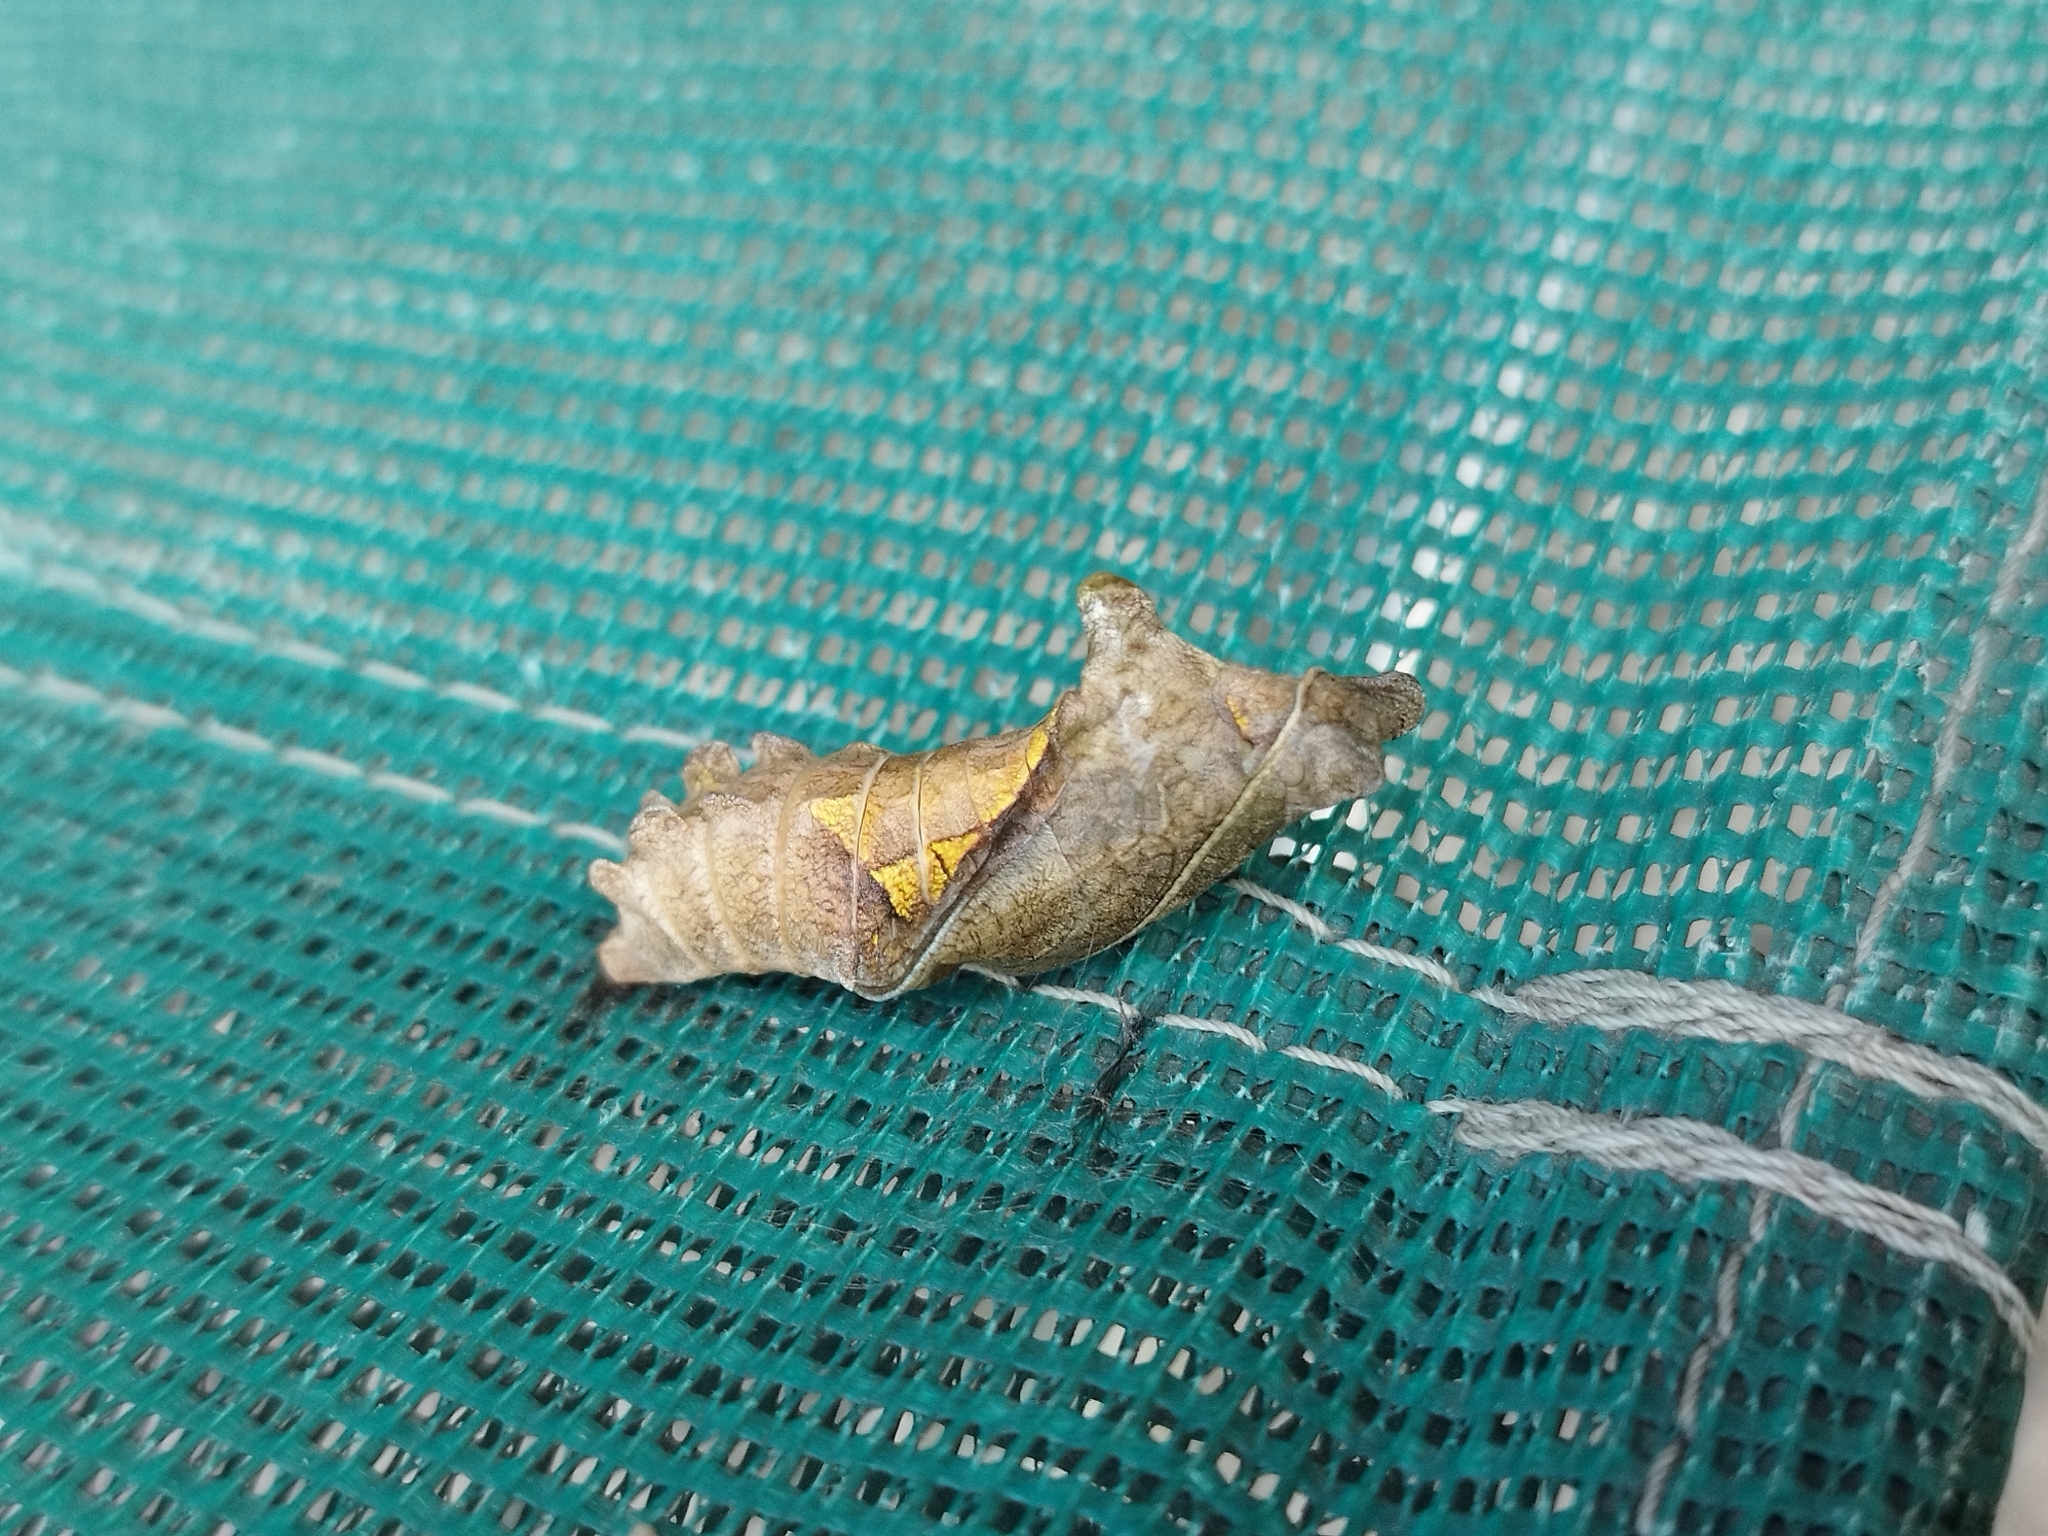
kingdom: Animalia
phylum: Arthropoda
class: Insecta
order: Lepidoptera
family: Papilionidae
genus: Battus
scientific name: Battus polydamas
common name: Polydamas swallowtail
